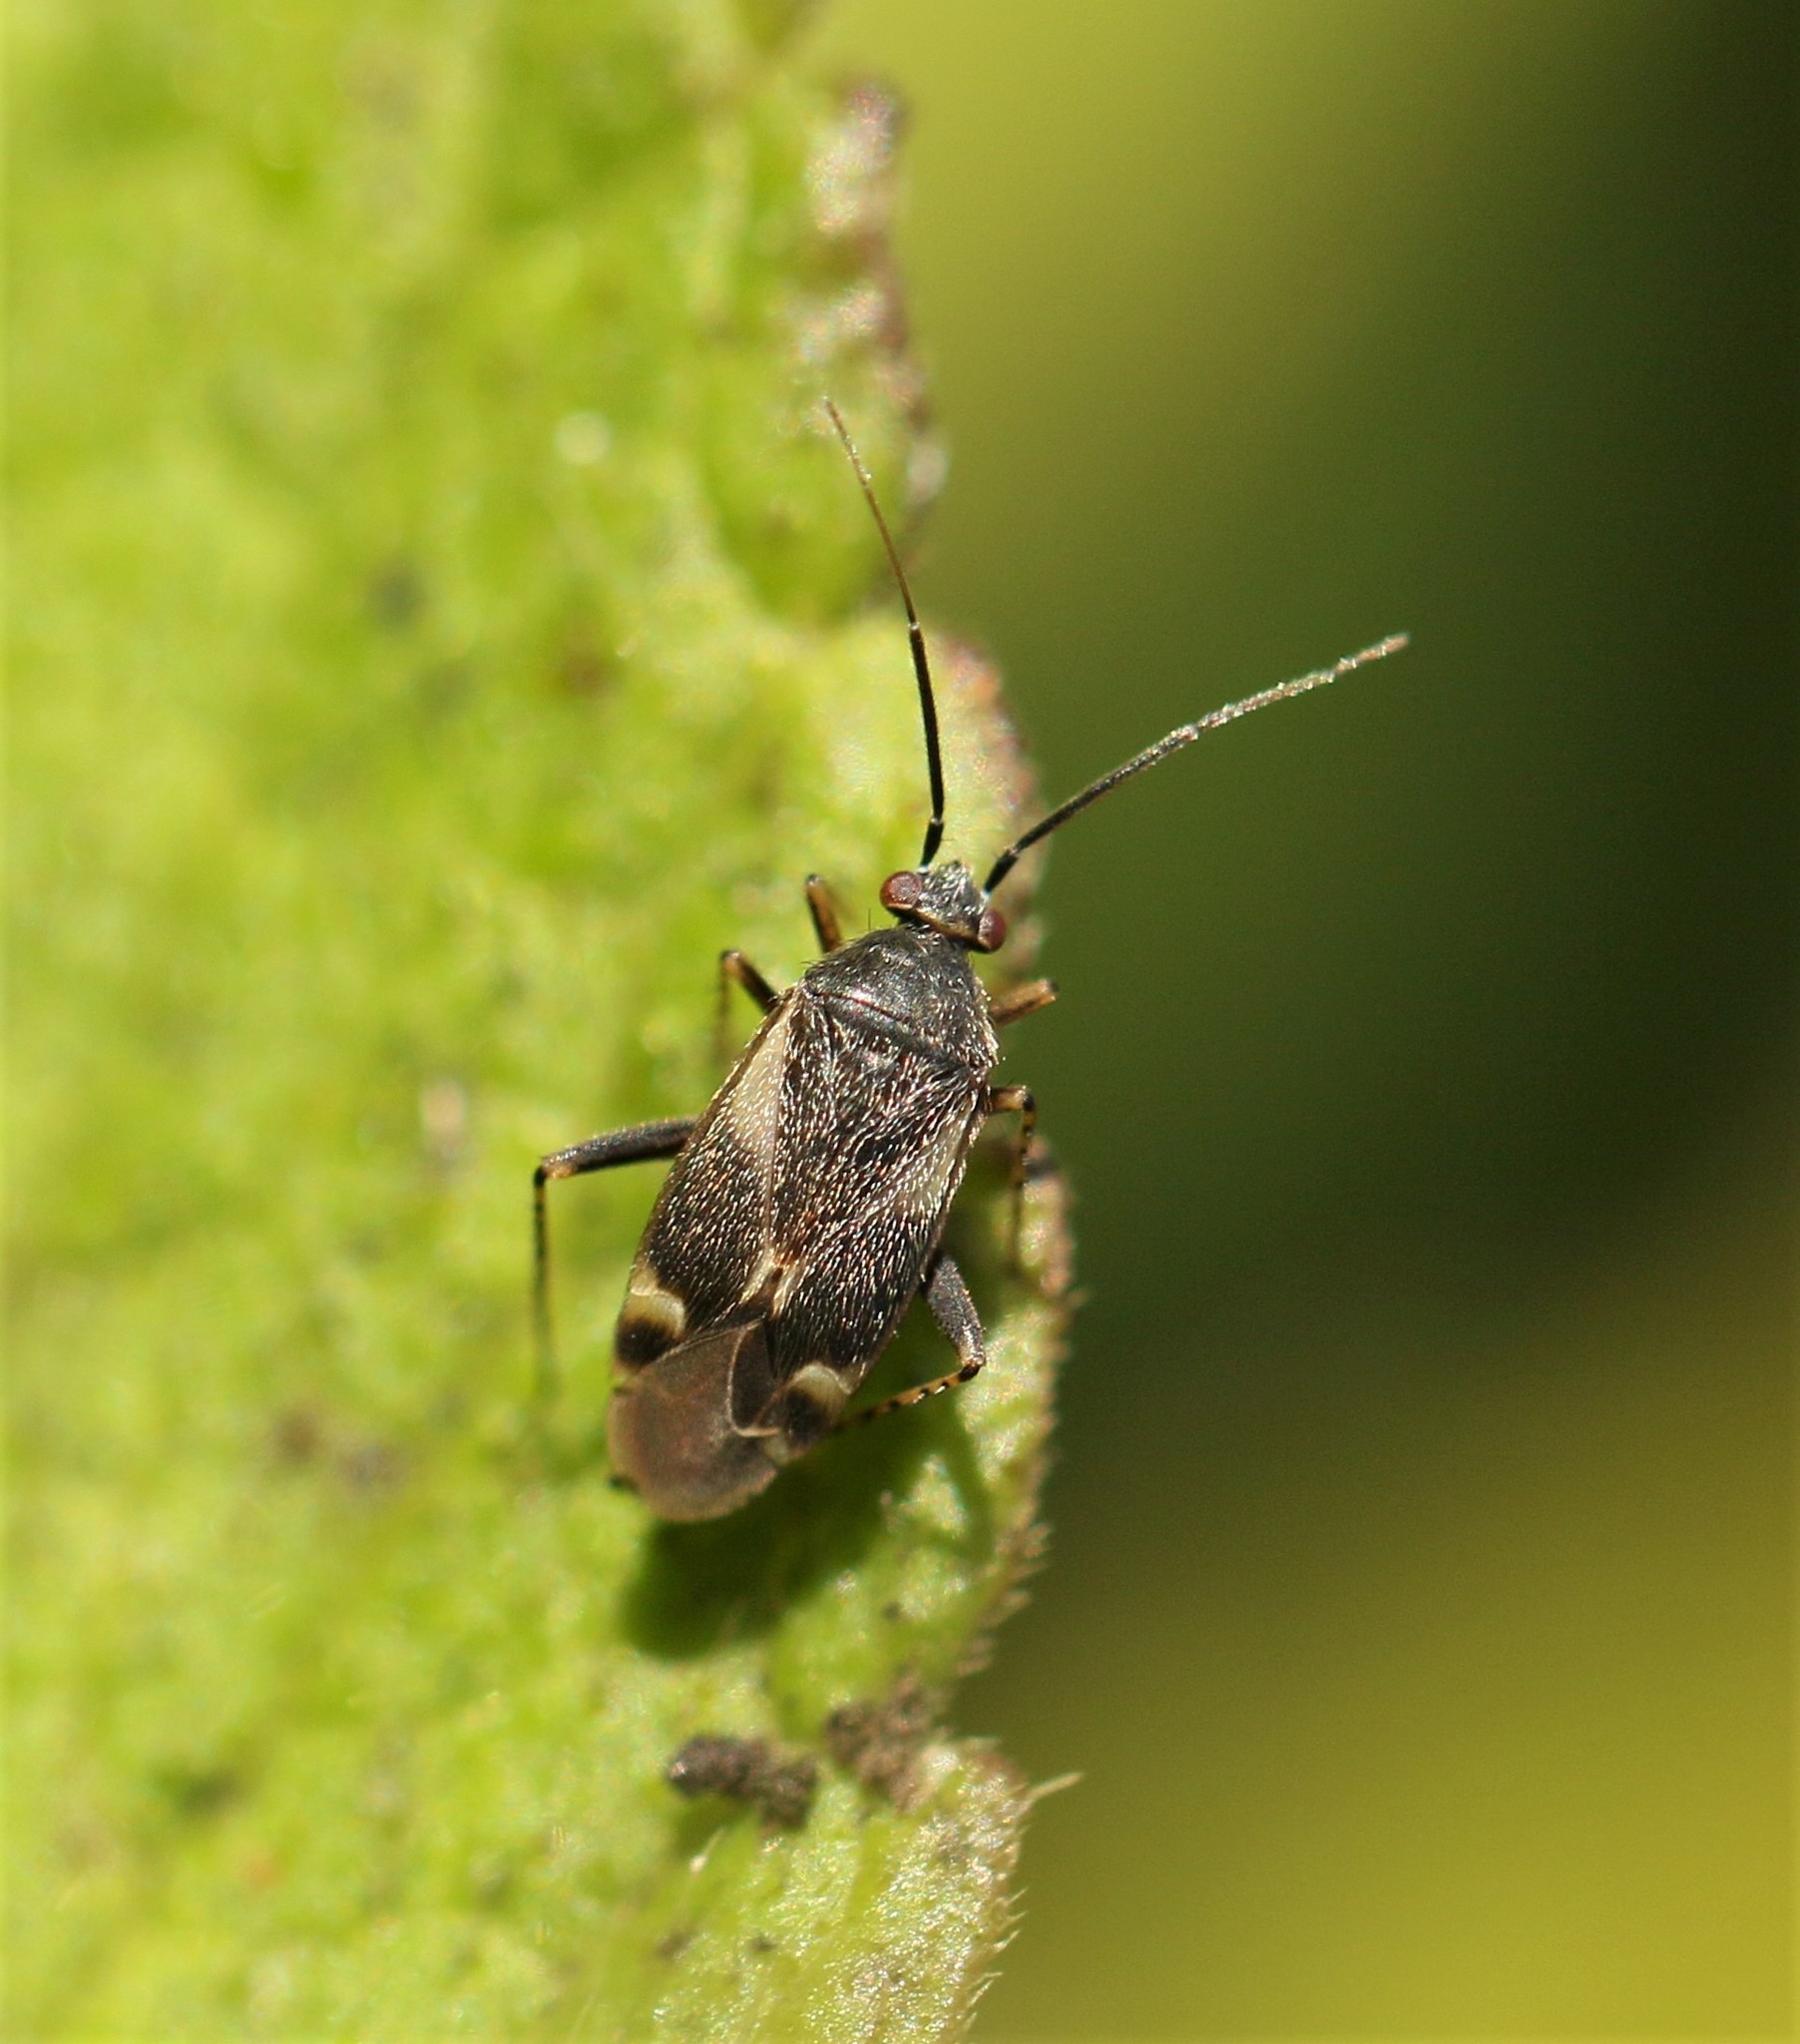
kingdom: Animalia
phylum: Arthropoda
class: Insecta
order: Hemiptera
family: Miridae
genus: Plagiognathus
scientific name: Plagiognathus obscurus
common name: Obscure plant bug
